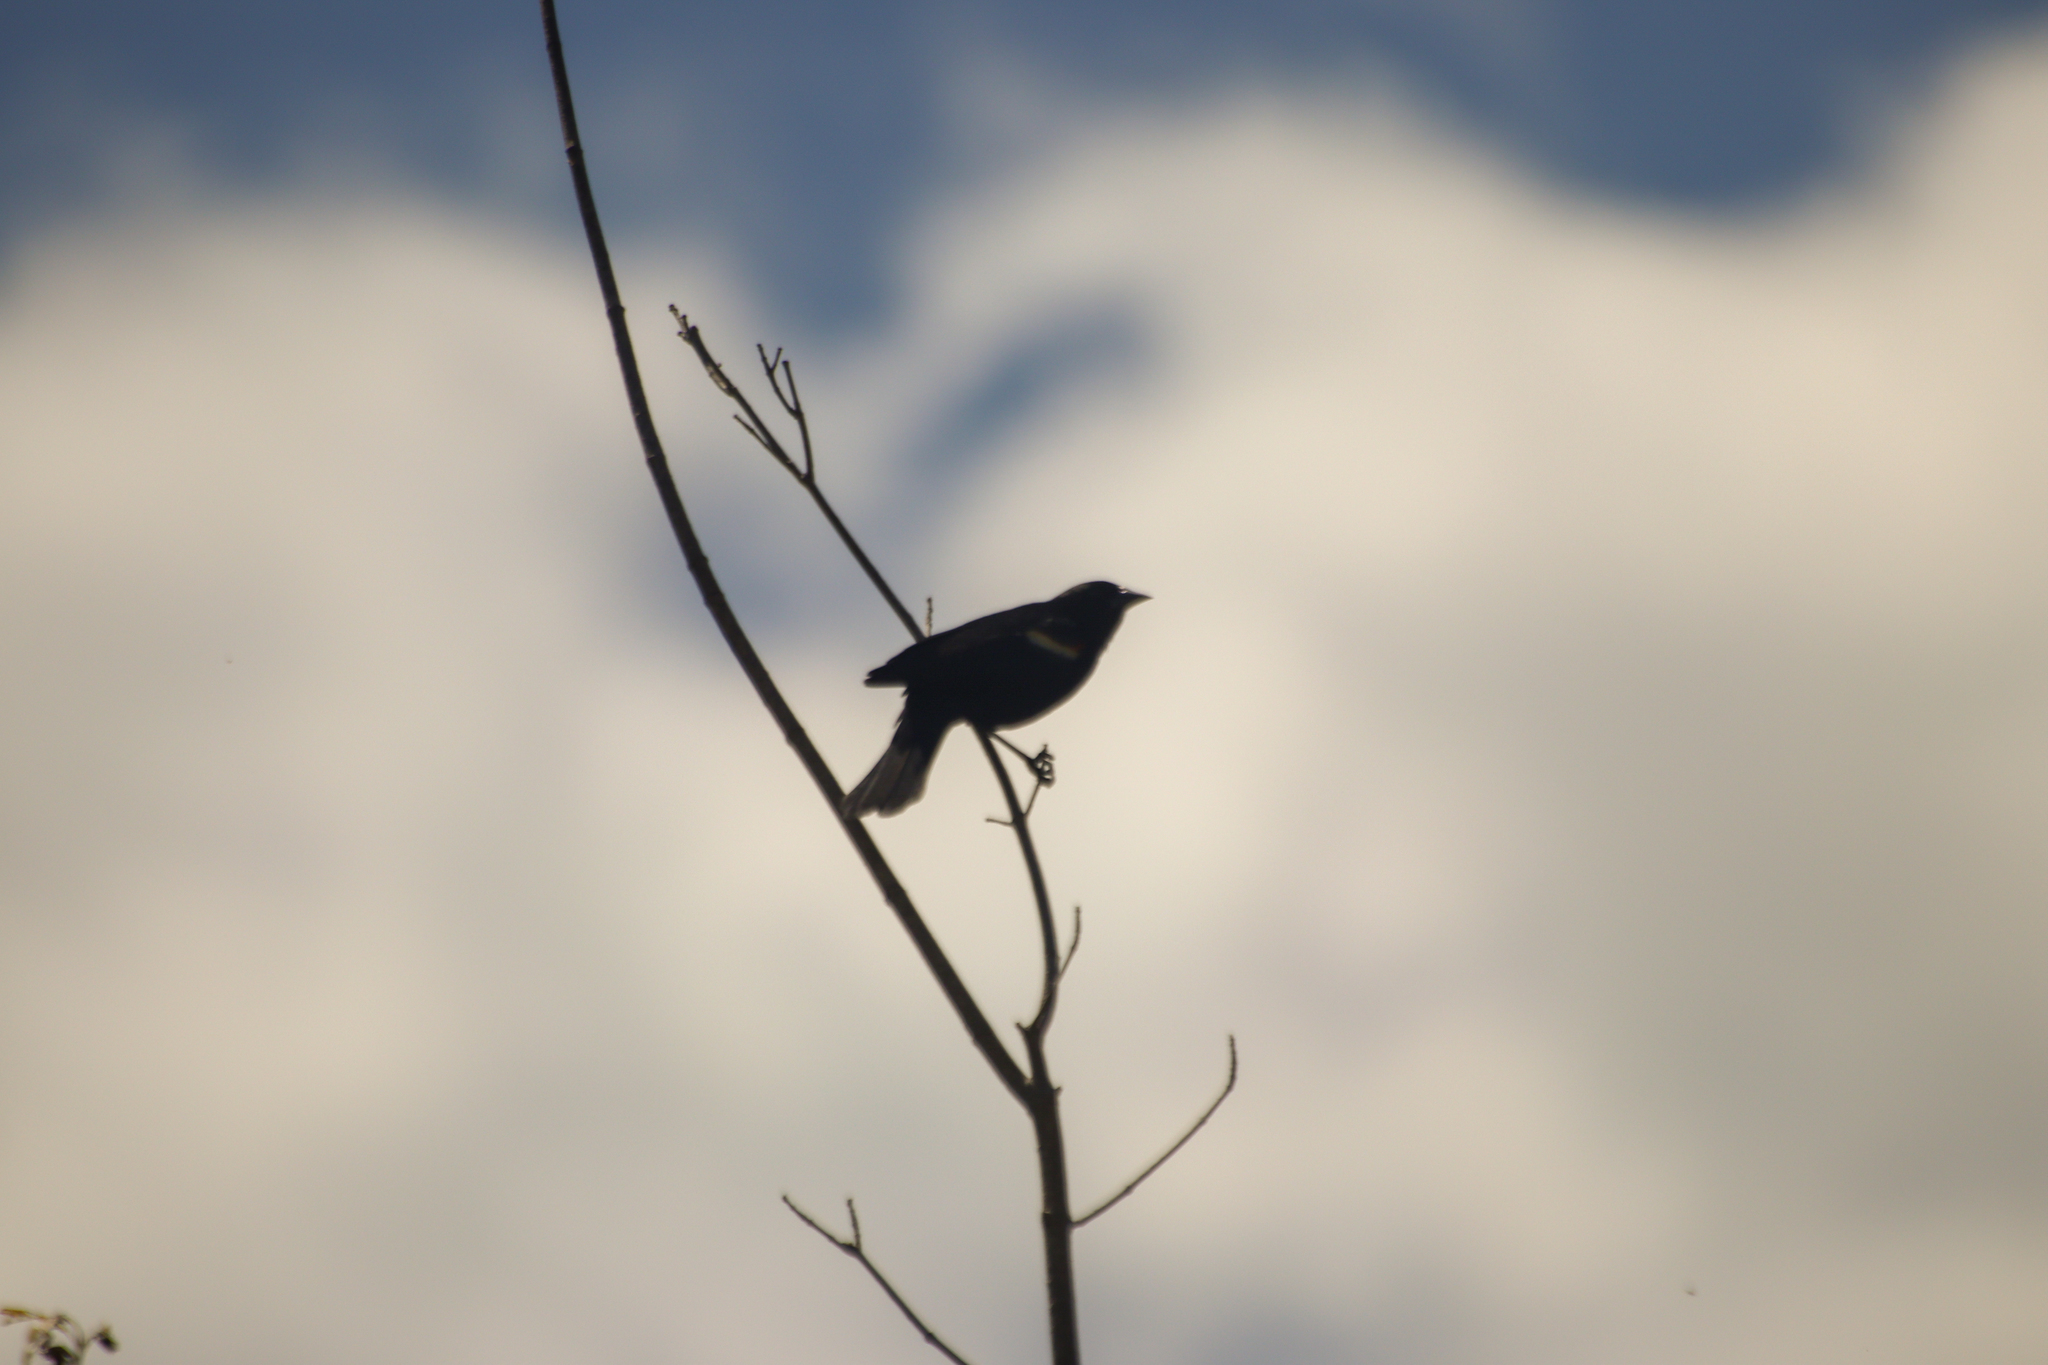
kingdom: Animalia
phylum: Chordata
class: Aves
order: Passeriformes
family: Icteridae
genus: Agelaius
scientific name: Agelaius phoeniceus
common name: Red-winged blackbird
